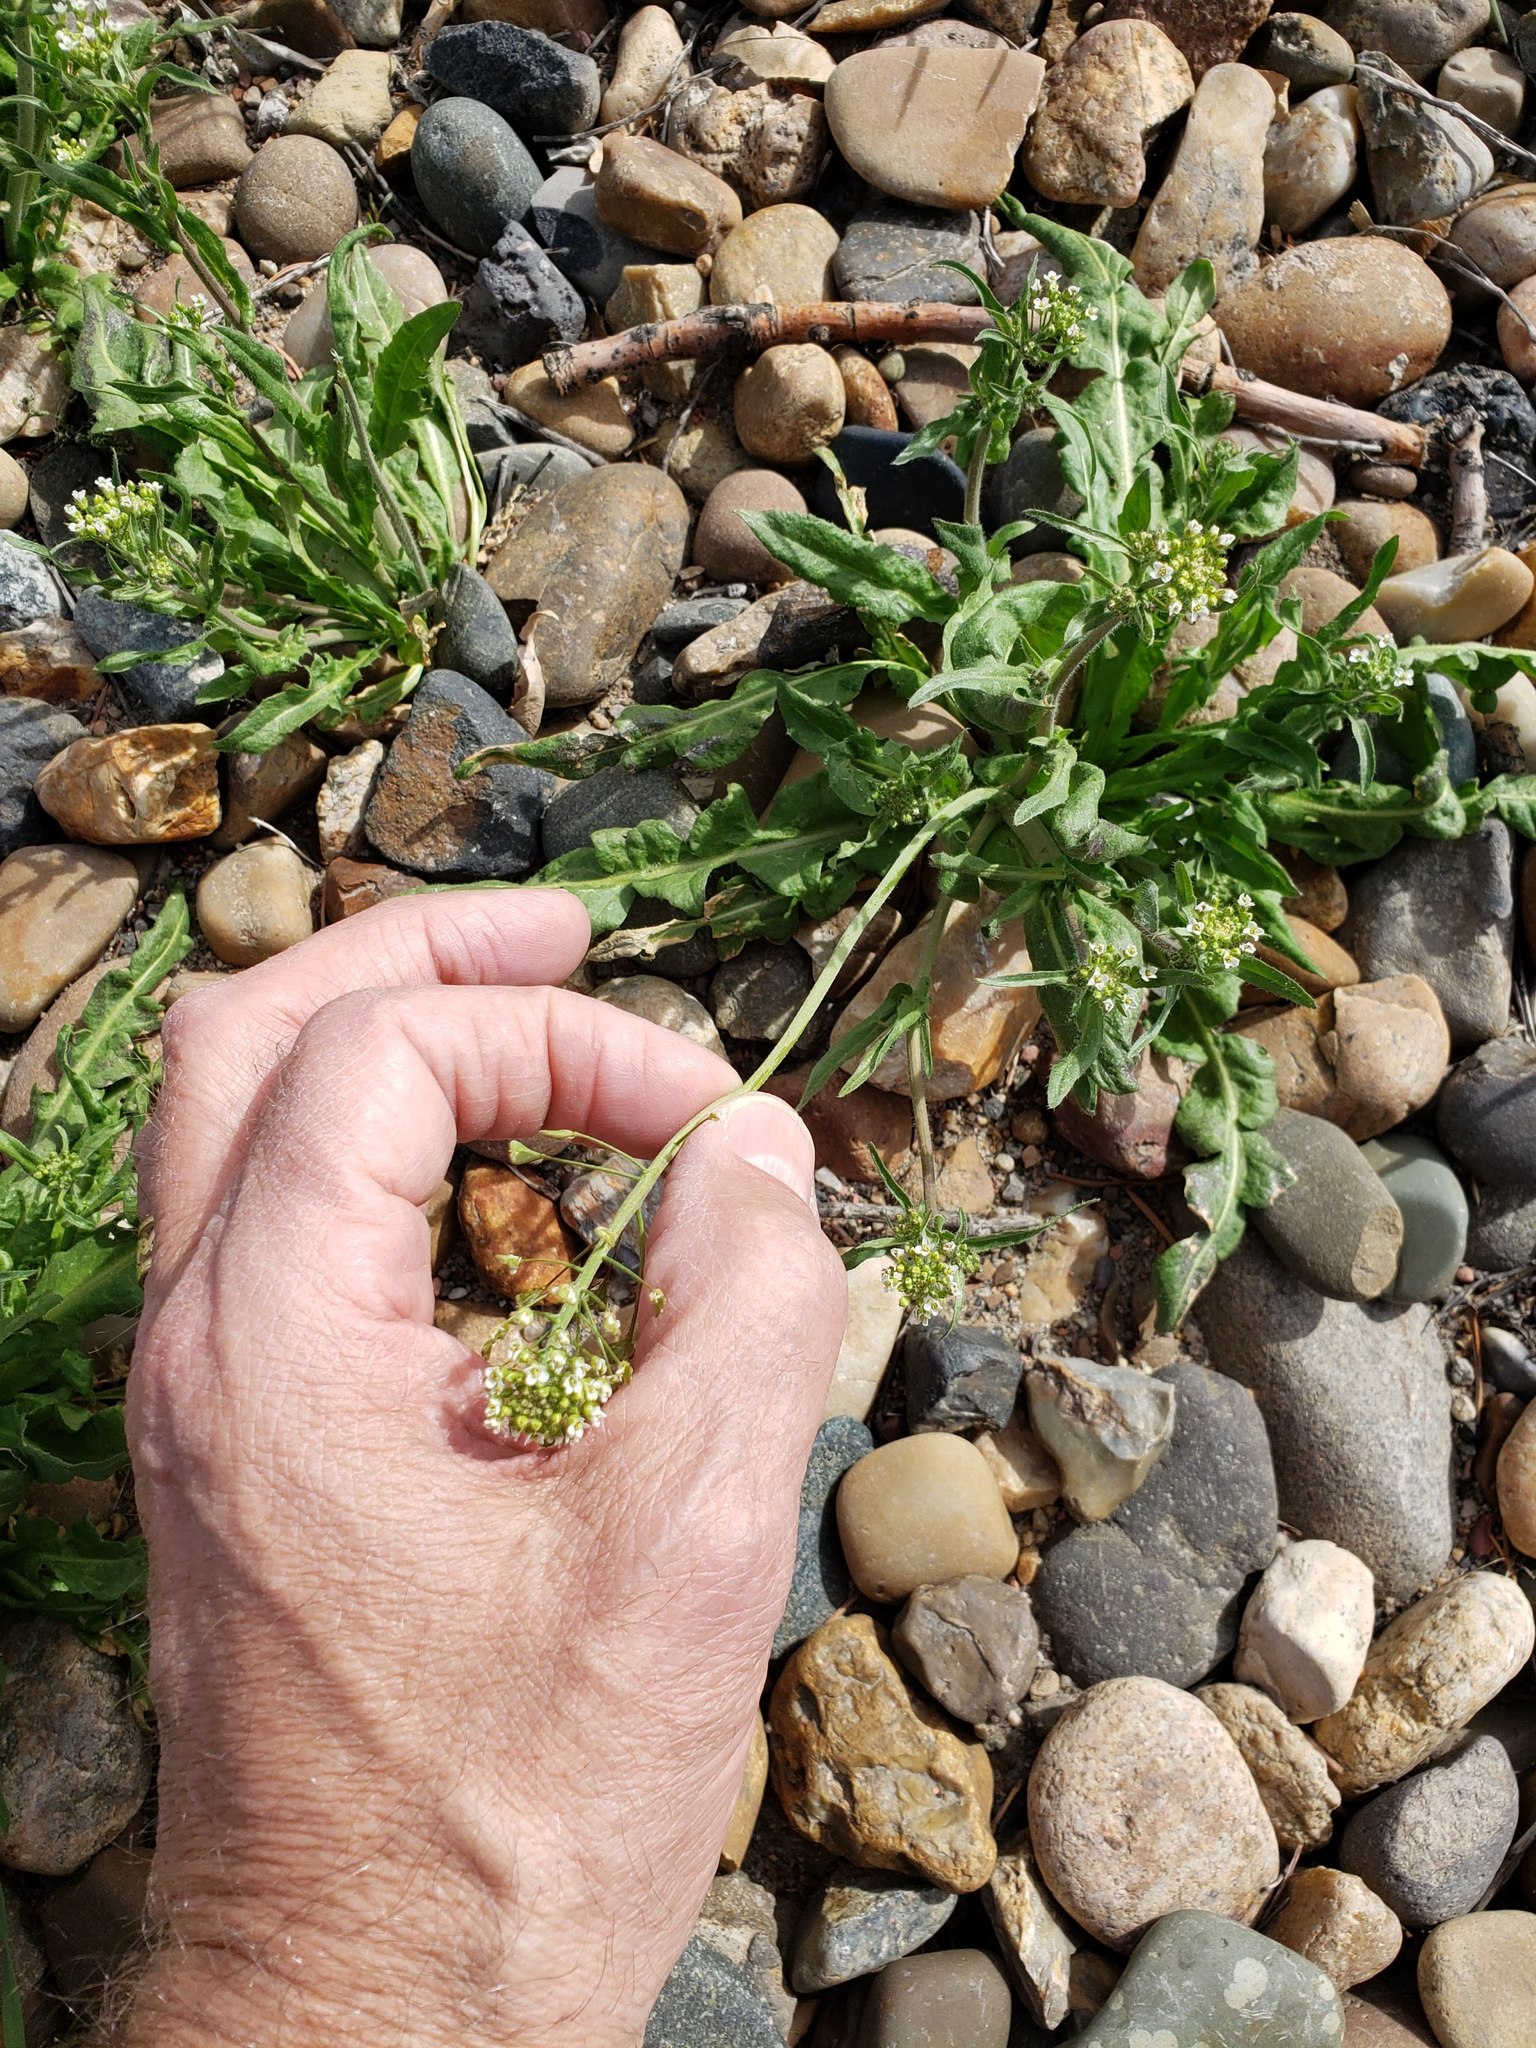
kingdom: Plantae
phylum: Tracheophyta
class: Magnoliopsida
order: Brassicales
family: Brassicaceae
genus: Capsella
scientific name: Capsella bursa-pastoris
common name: Shepherd's purse
